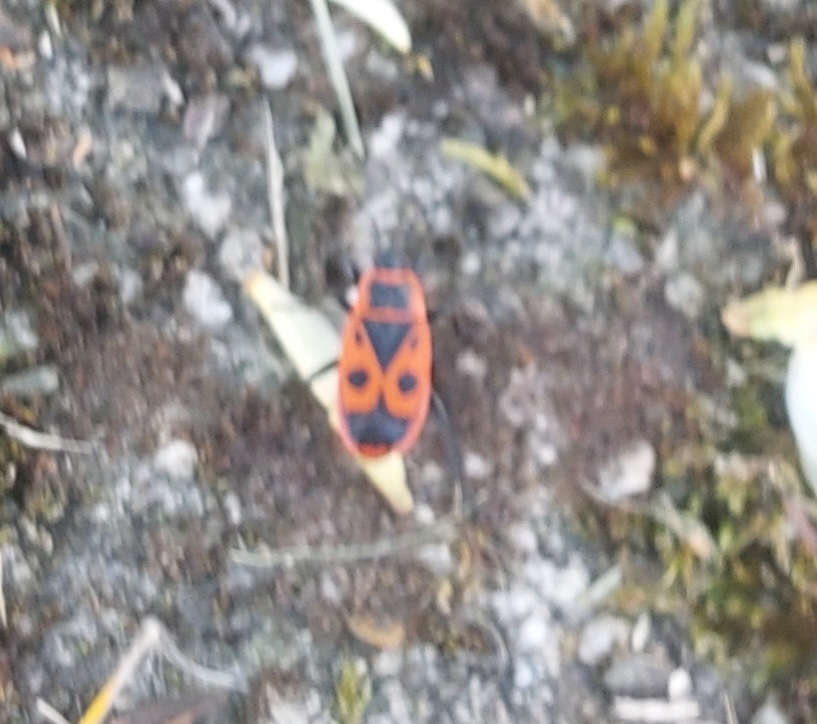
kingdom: Animalia
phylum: Arthropoda
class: Insecta
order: Hemiptera
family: Pyrrhocoridae
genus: Pyrrhocoris
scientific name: Pyrrhocoris apterus
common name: Firebug
